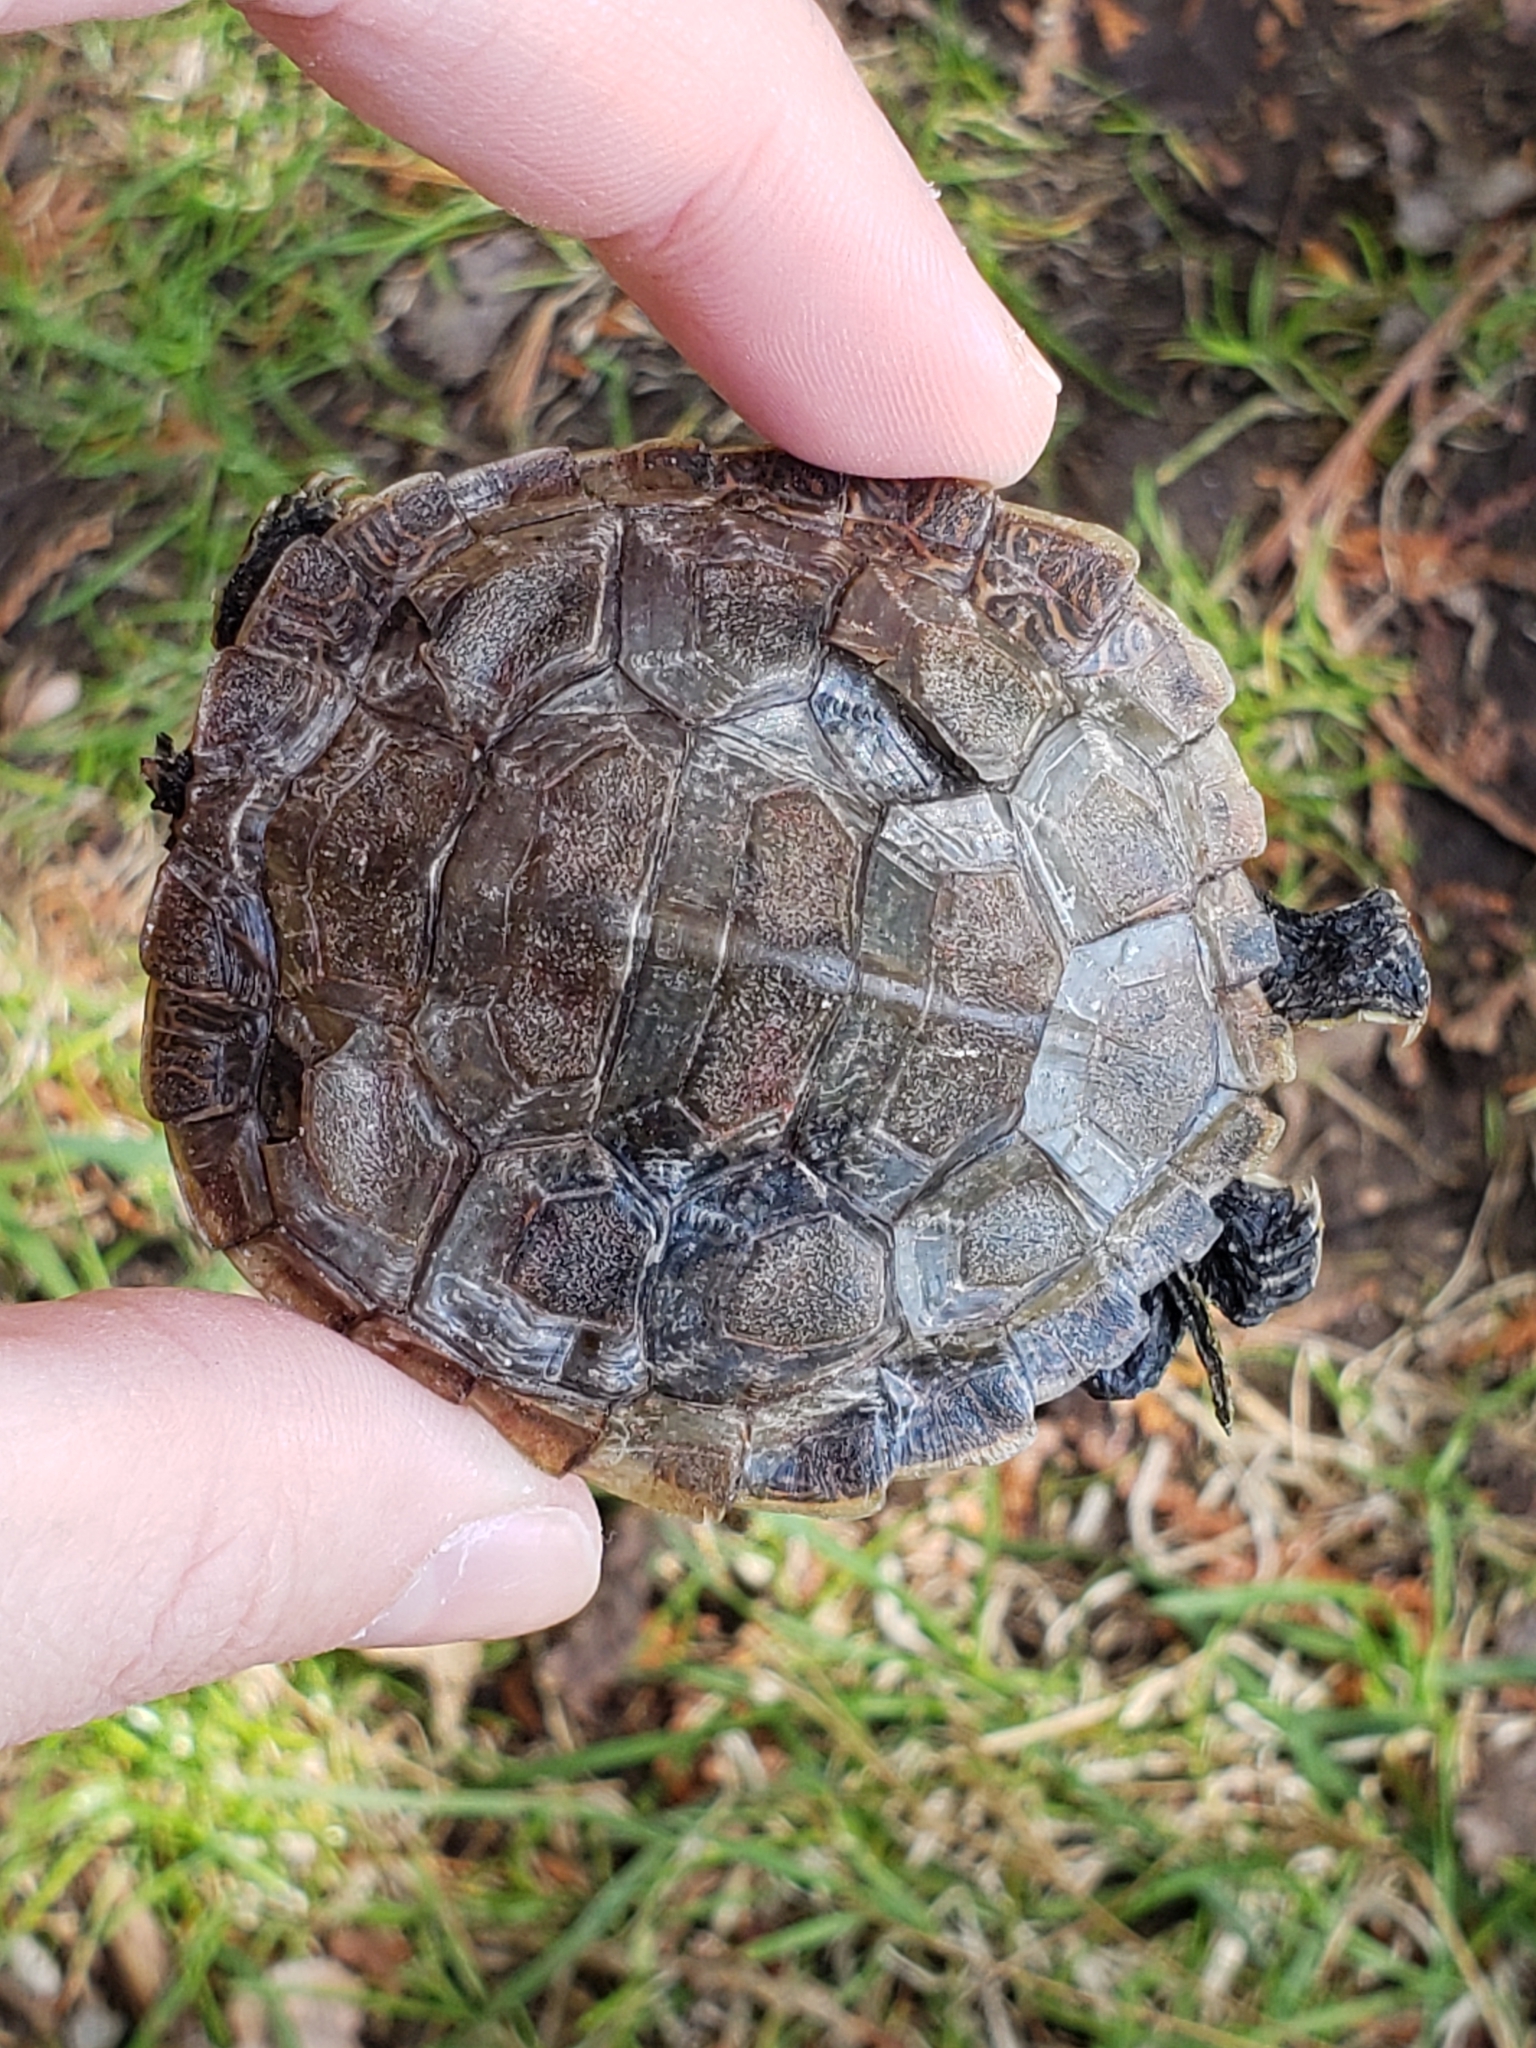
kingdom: Animalia
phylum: Chordata
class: Testudines
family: Emydidae
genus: Graptemys
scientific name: Graptemys geographica
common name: Common map turtle
